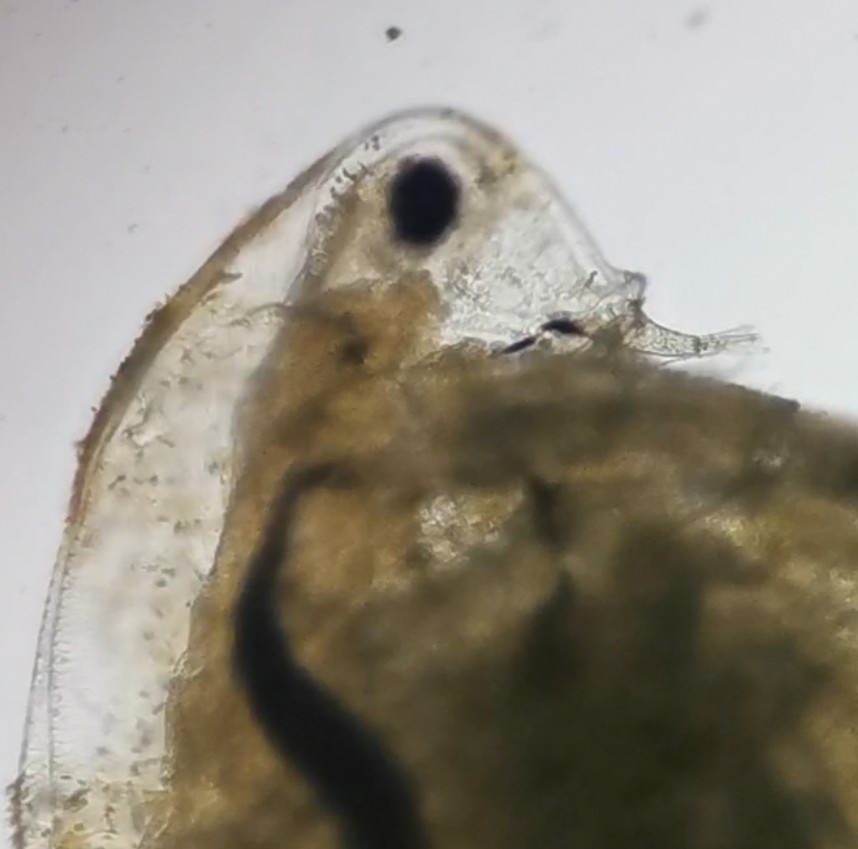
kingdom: Animalia
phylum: Arthropoda
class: Branchiopoda
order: Diplostraca
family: Daphniidae
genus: Simocephalus
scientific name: Simocephalus vetulus
